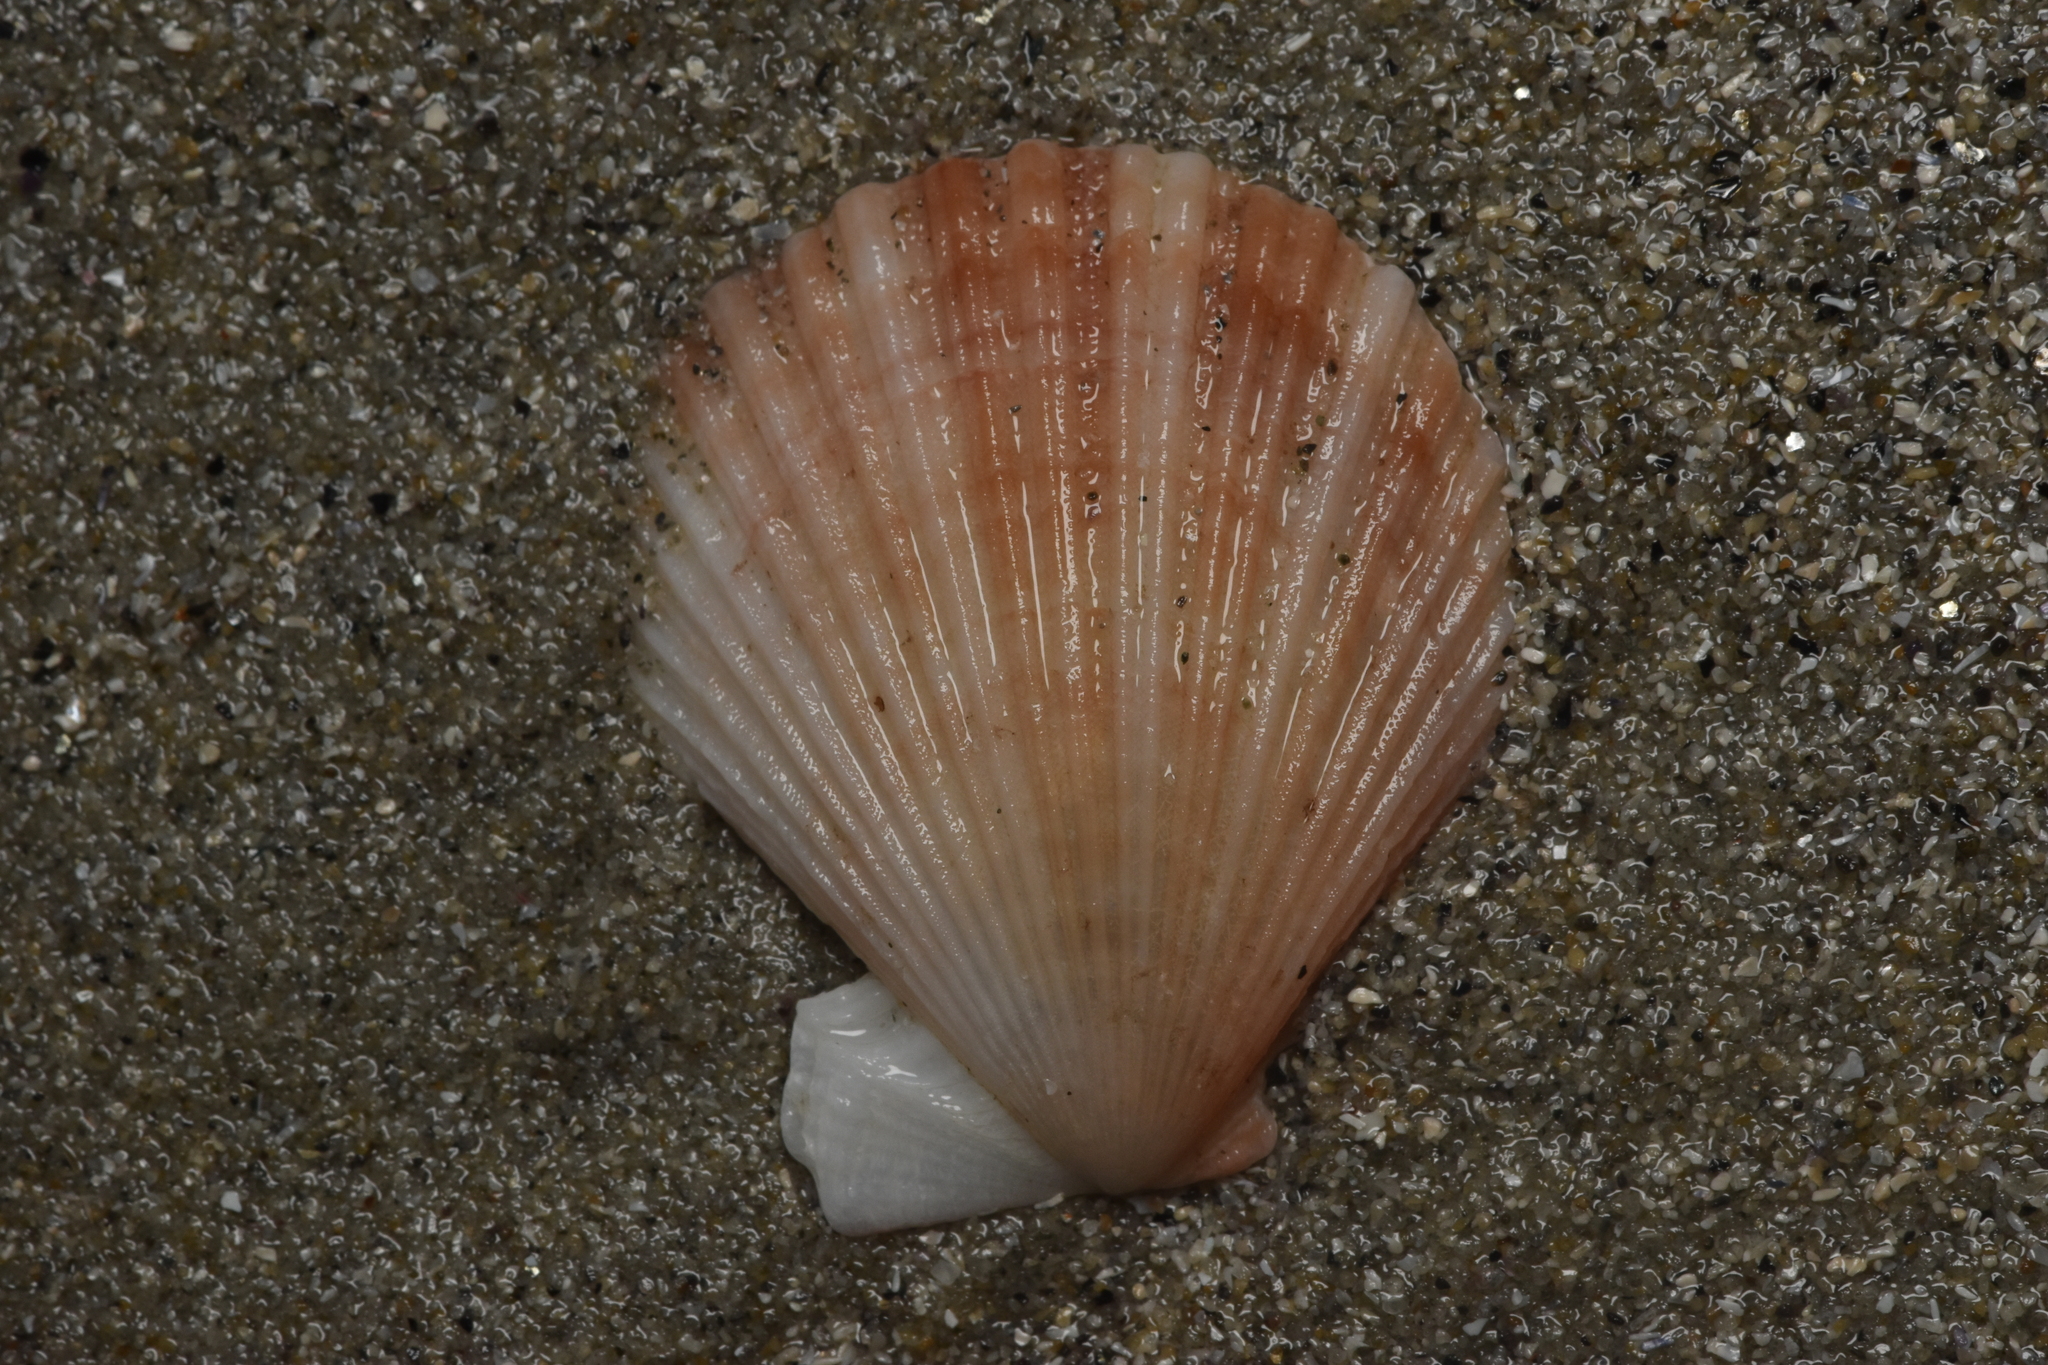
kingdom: Animalia
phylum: Mollusca
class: Bivalvia
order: Pectinida
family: Pectinidae
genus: Chlamys
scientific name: Chlamys hastata
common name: Spear scallop
